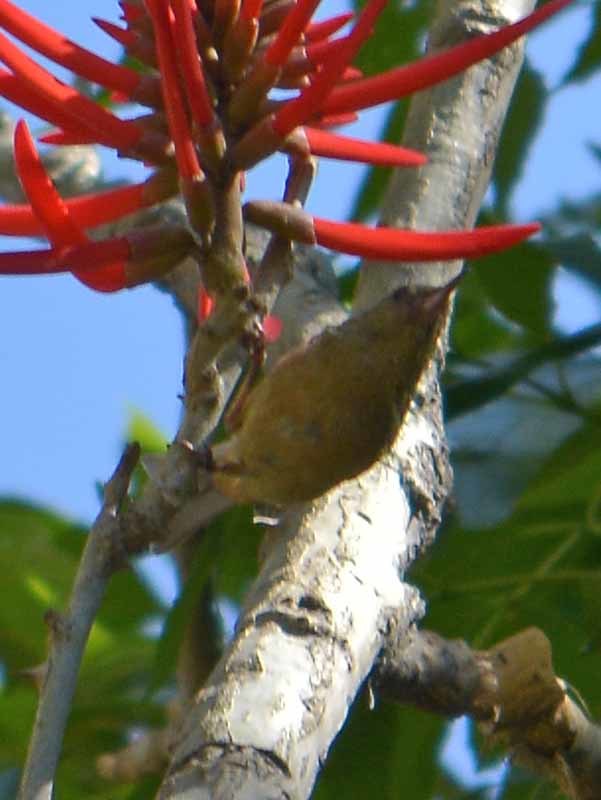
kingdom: Animalia
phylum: Chordata
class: Aves
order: Passeriformes
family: Thraupidae
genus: Diglossa
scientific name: Diglossa baritula
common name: Cinnamon-bellied flowerpiercer
